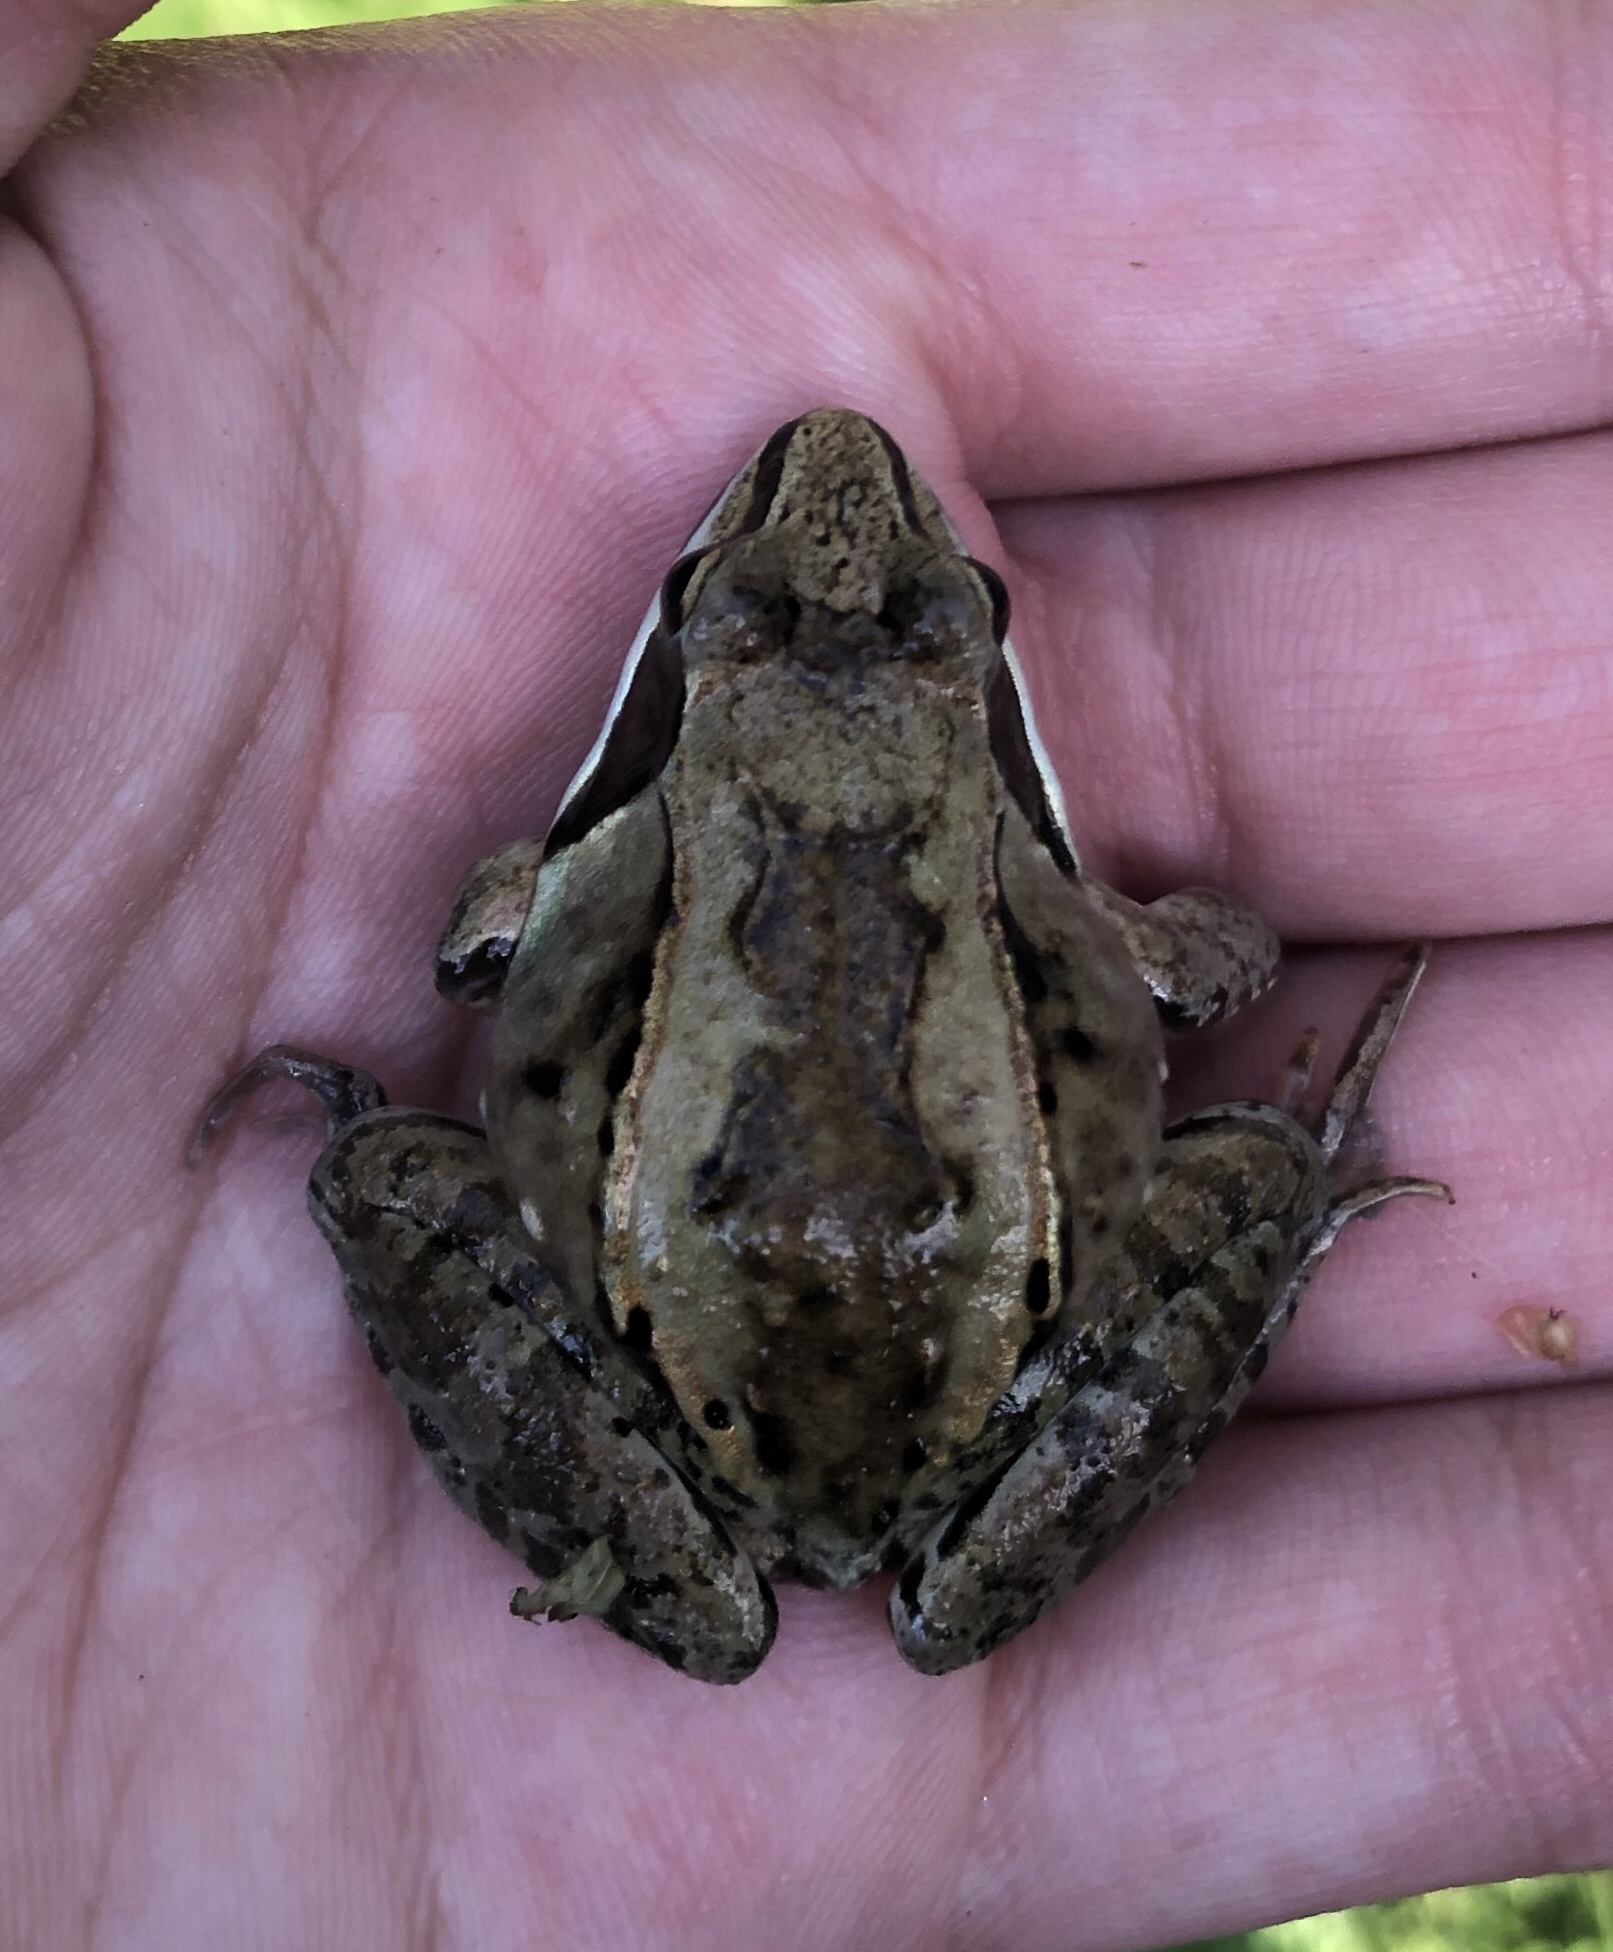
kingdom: Animalia
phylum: Chordata
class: Amphibia
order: Anura
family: Ranidae
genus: Lithobates
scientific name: Lithobates sylvaticus
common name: Wood frog
